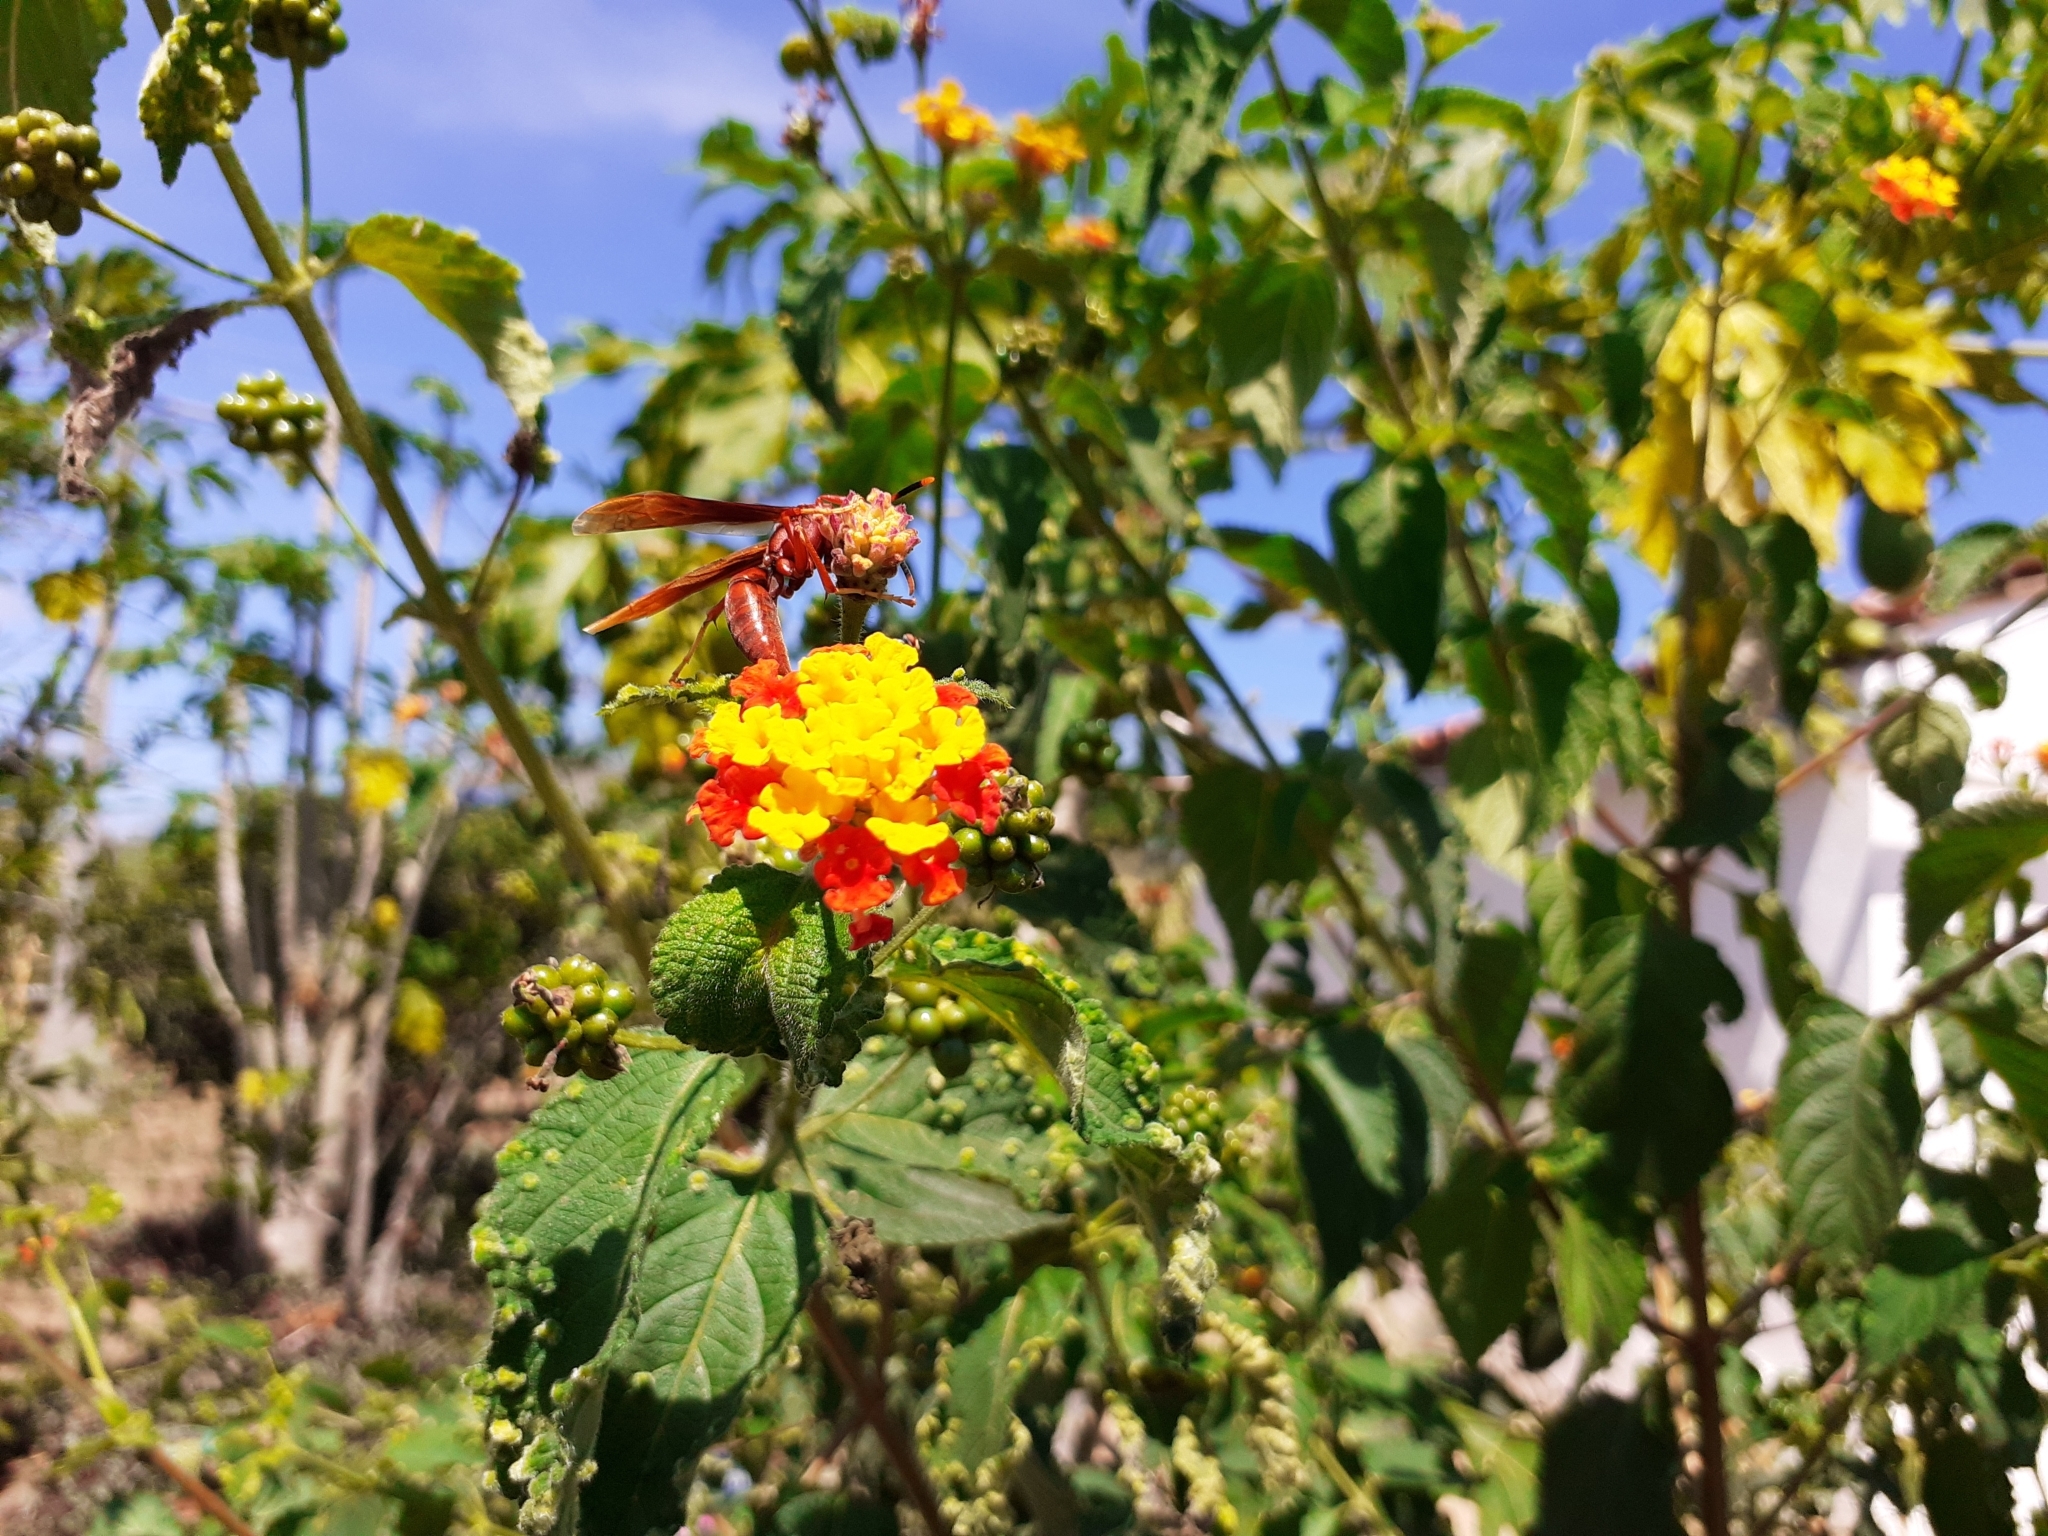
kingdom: Animalia
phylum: Arthropoda
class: Insecta
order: Hymenoptera
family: Eumenidae
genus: Polistes
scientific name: Polistes canadensis
